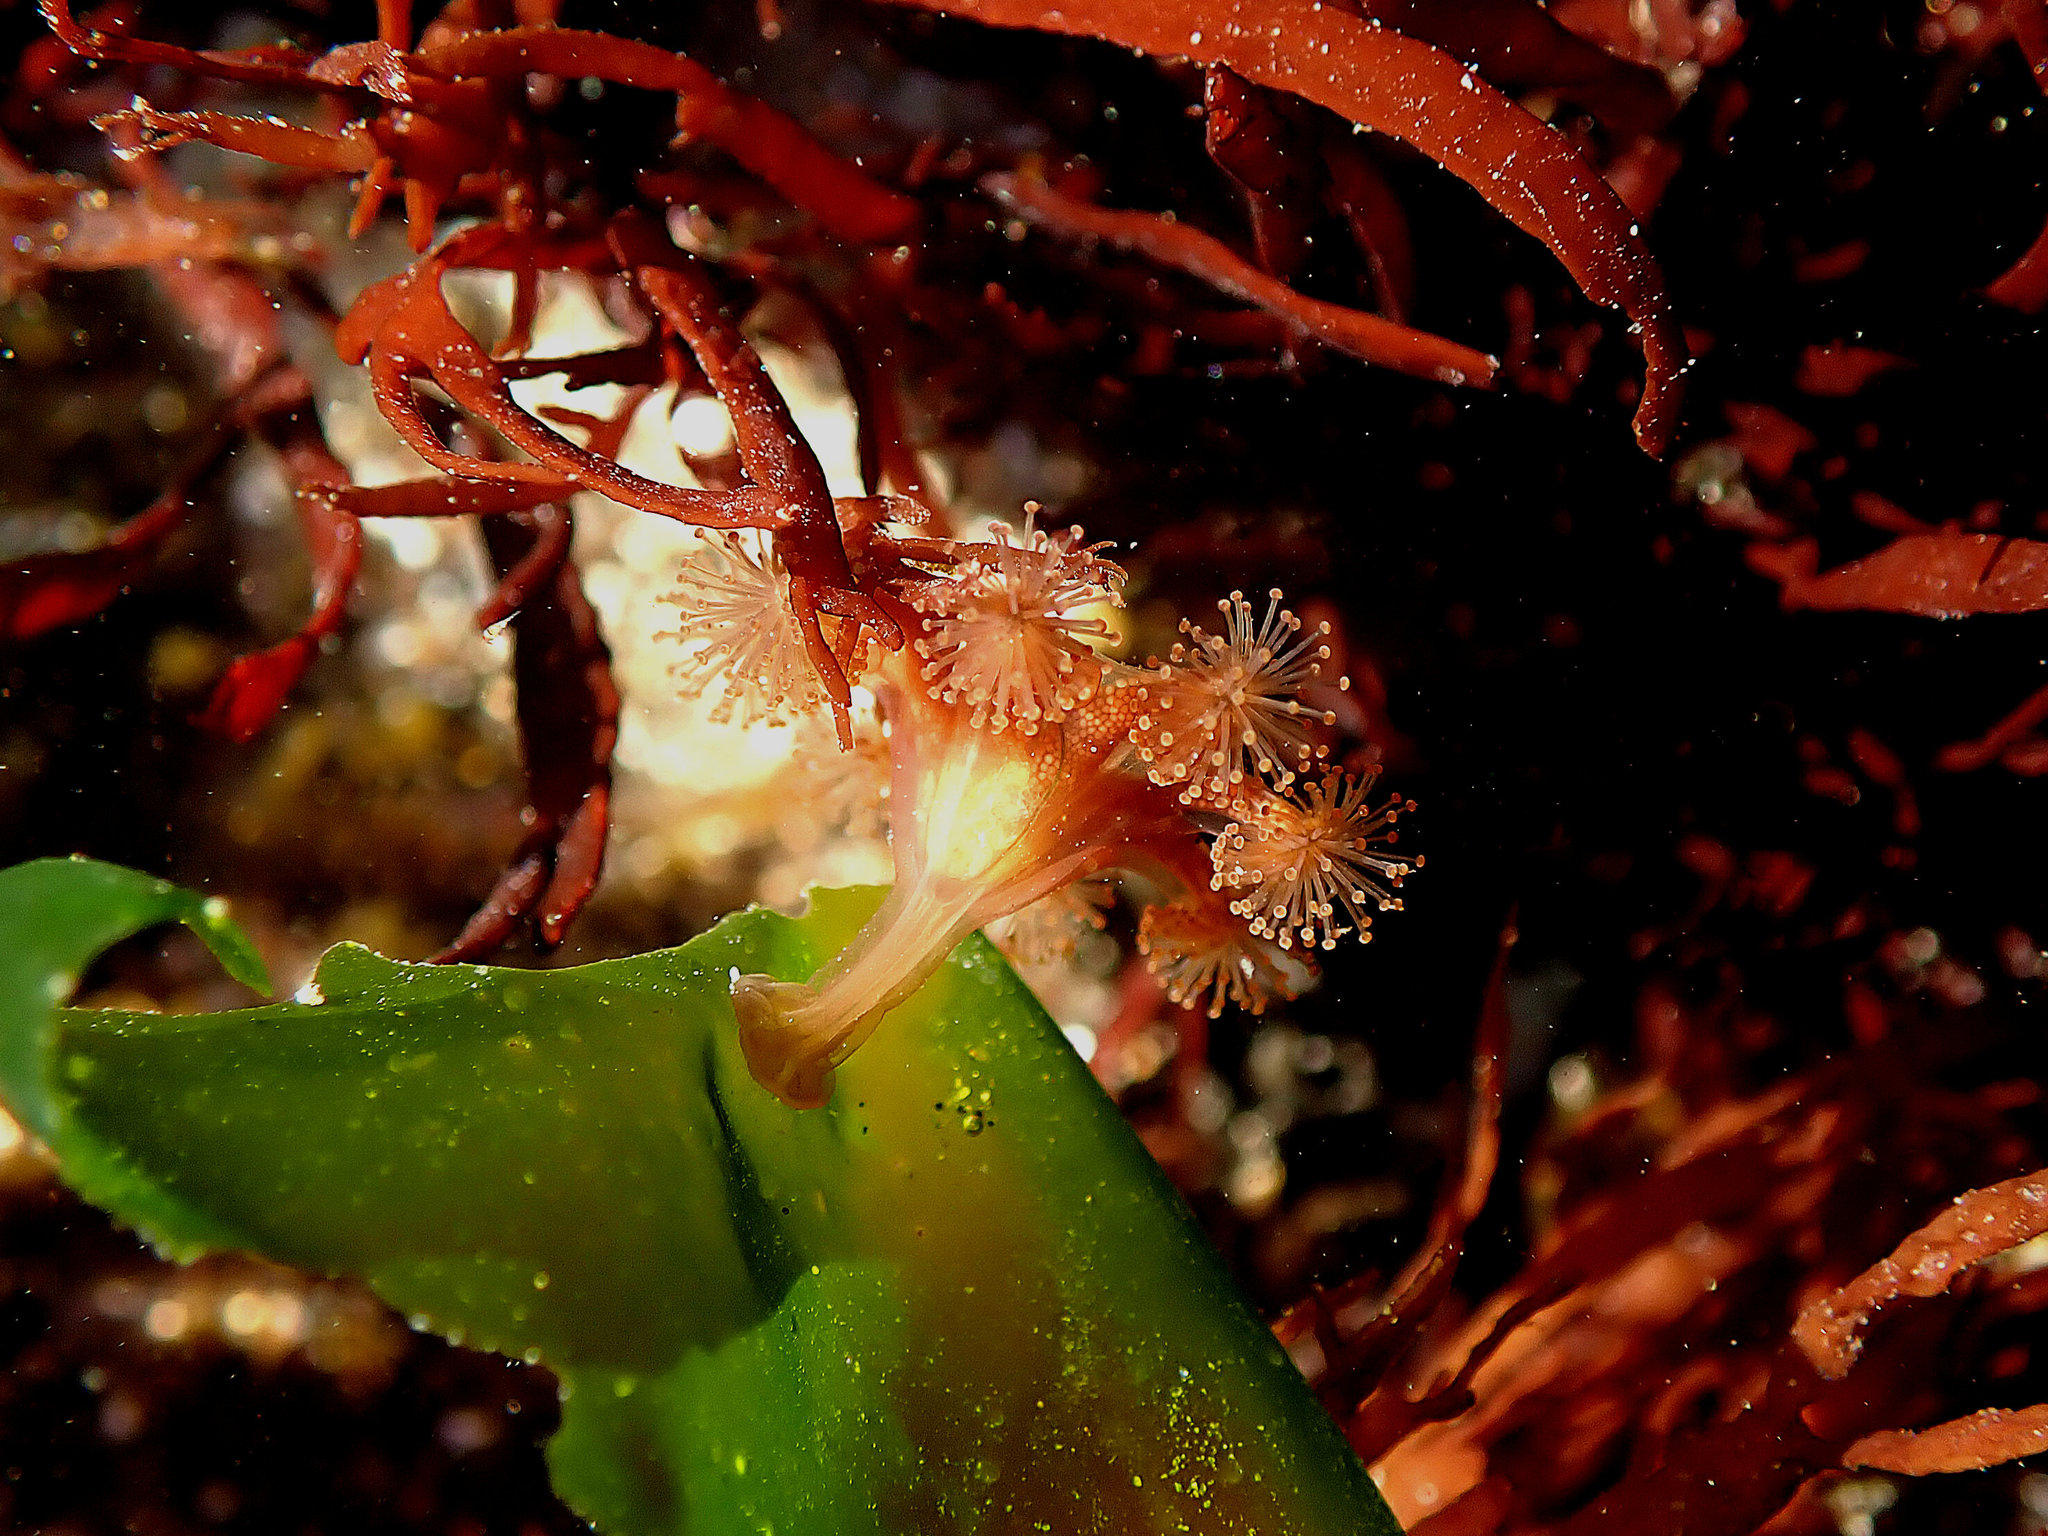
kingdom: Animalia
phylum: Cnidaria
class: Staurozoa
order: Stauromedusae
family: Haliclystidae
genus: Haliclystus
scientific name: Haliclystus sanjuanensis
